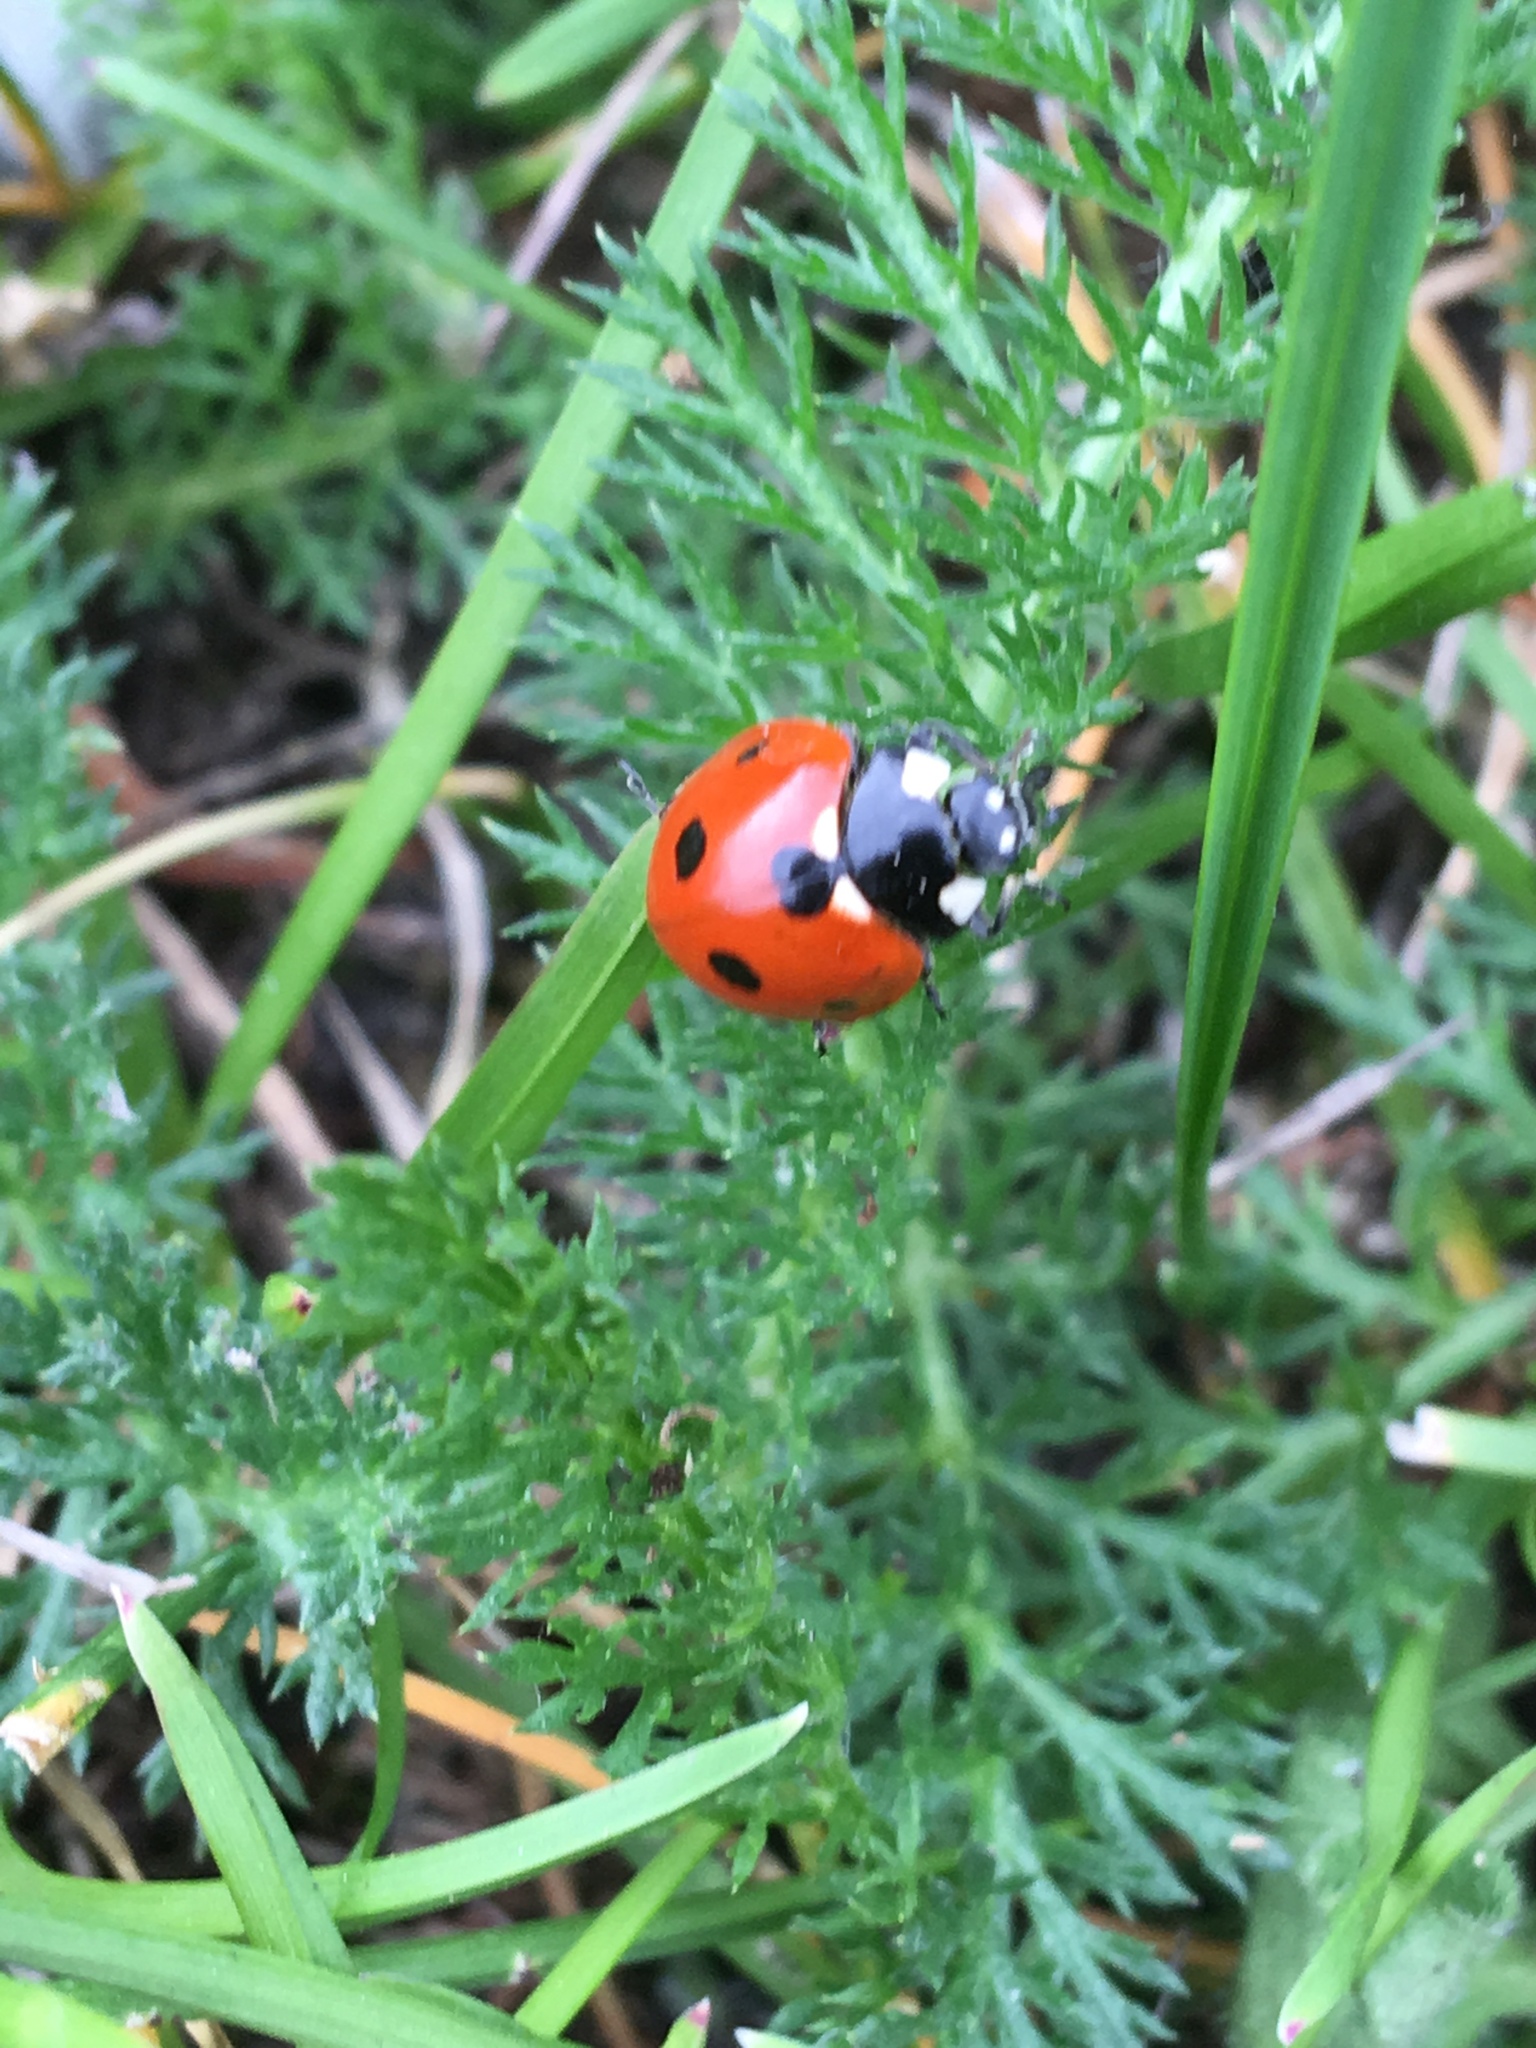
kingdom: Animalia
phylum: Arthropoda
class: Insecta
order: Coleoptera
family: Coccinellidae
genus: Coccinella
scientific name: Coccinella septempunctata
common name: Sevenspotted lady beetle
